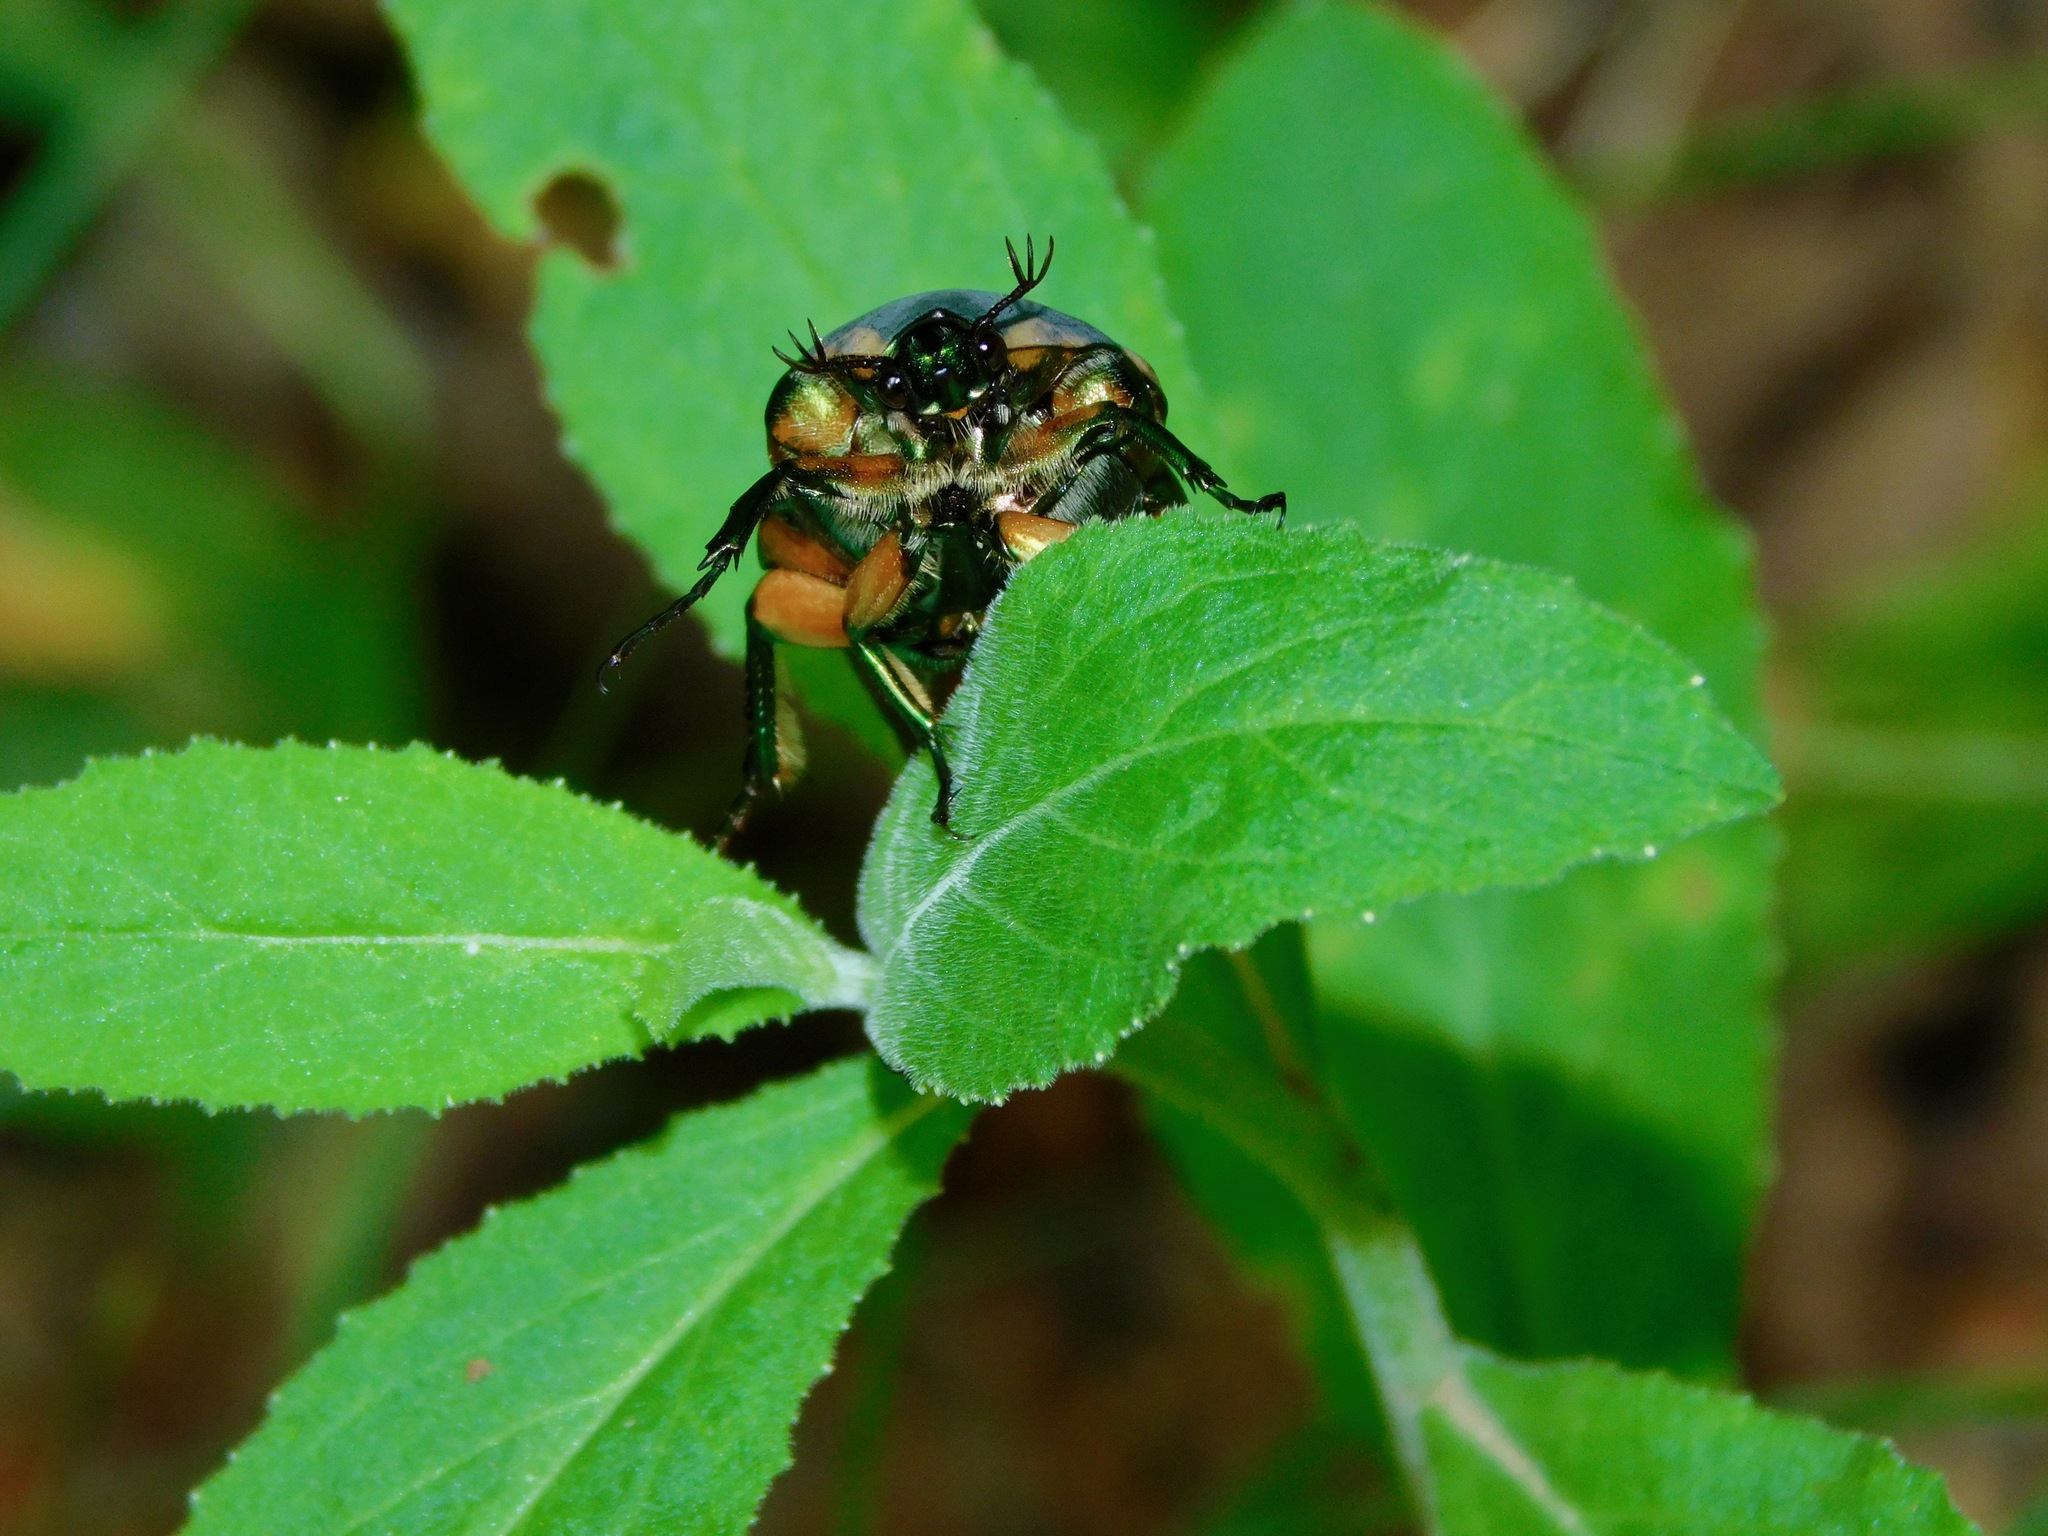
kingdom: Animalia
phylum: Arthropoda
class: Insecta
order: Coleoptera
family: Scarabaeidae
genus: Cotinis
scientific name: Cotinis nitida
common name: Common green june beetle
